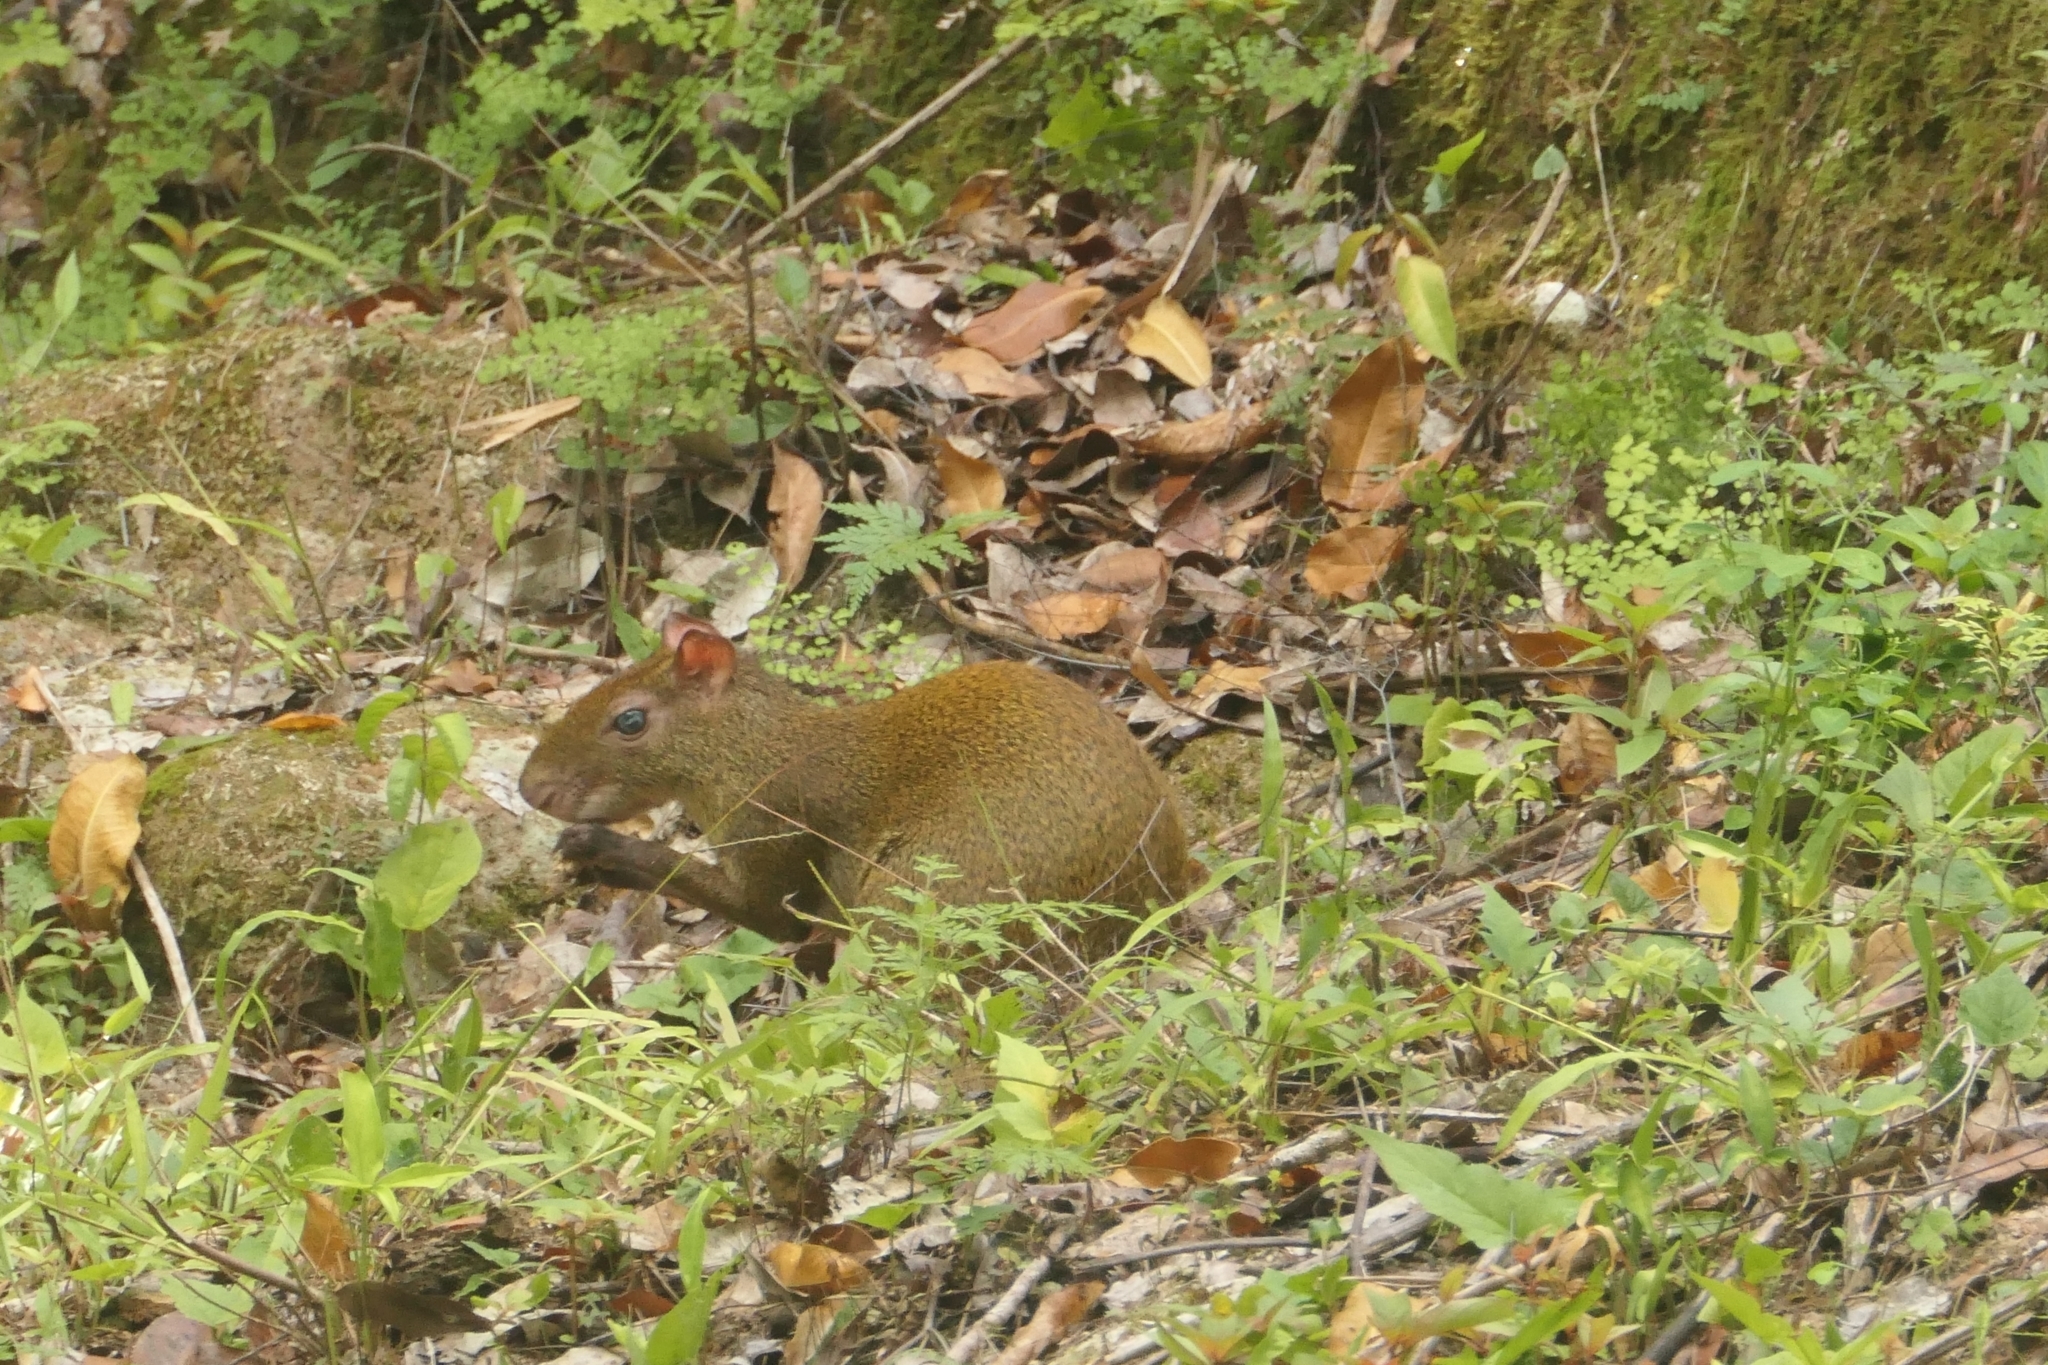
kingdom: Animalia
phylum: Chordata
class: Mammalia
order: Rodentia
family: Dasyproctidae
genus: Dasyprocta
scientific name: Dasyprocta punctata
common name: Central american agouti
